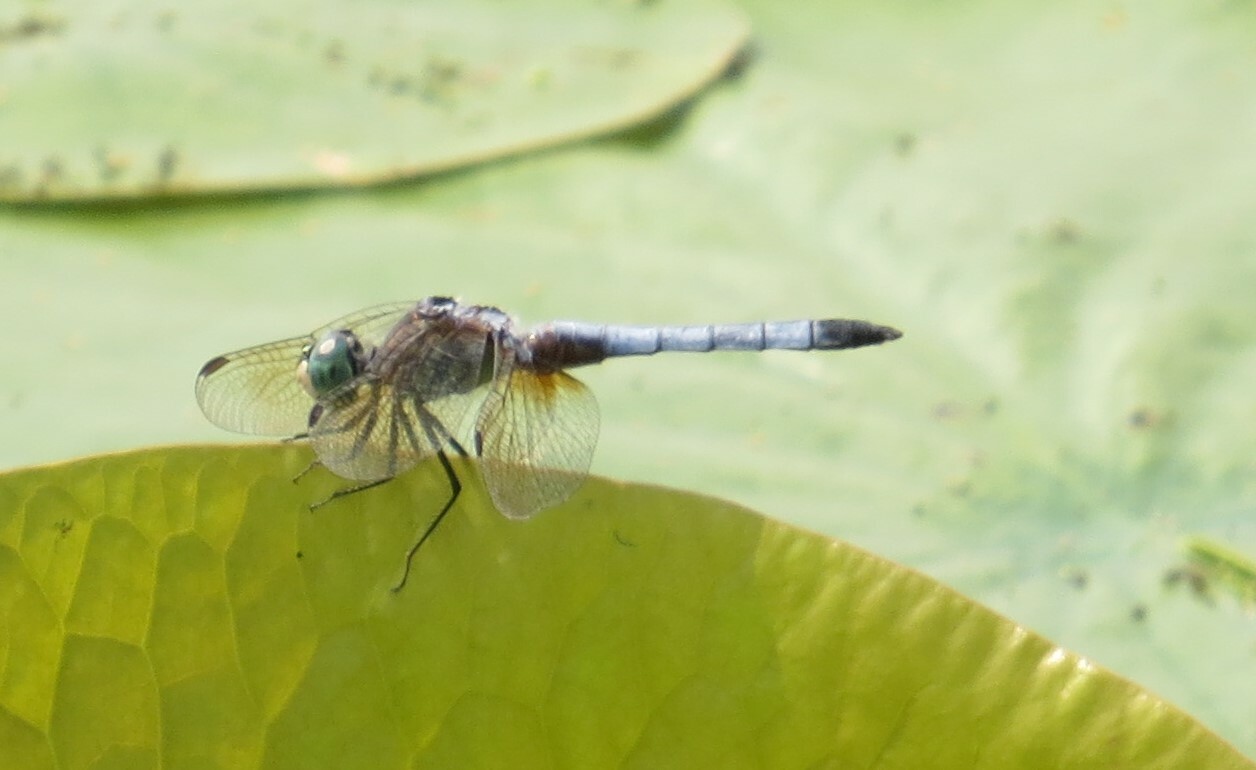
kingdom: Animalia
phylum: Arthropoda
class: Insecta
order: Odonata
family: Libellulidae
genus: Pachydiplax
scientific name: Pachydiplax longipennis
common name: Blue dasher
